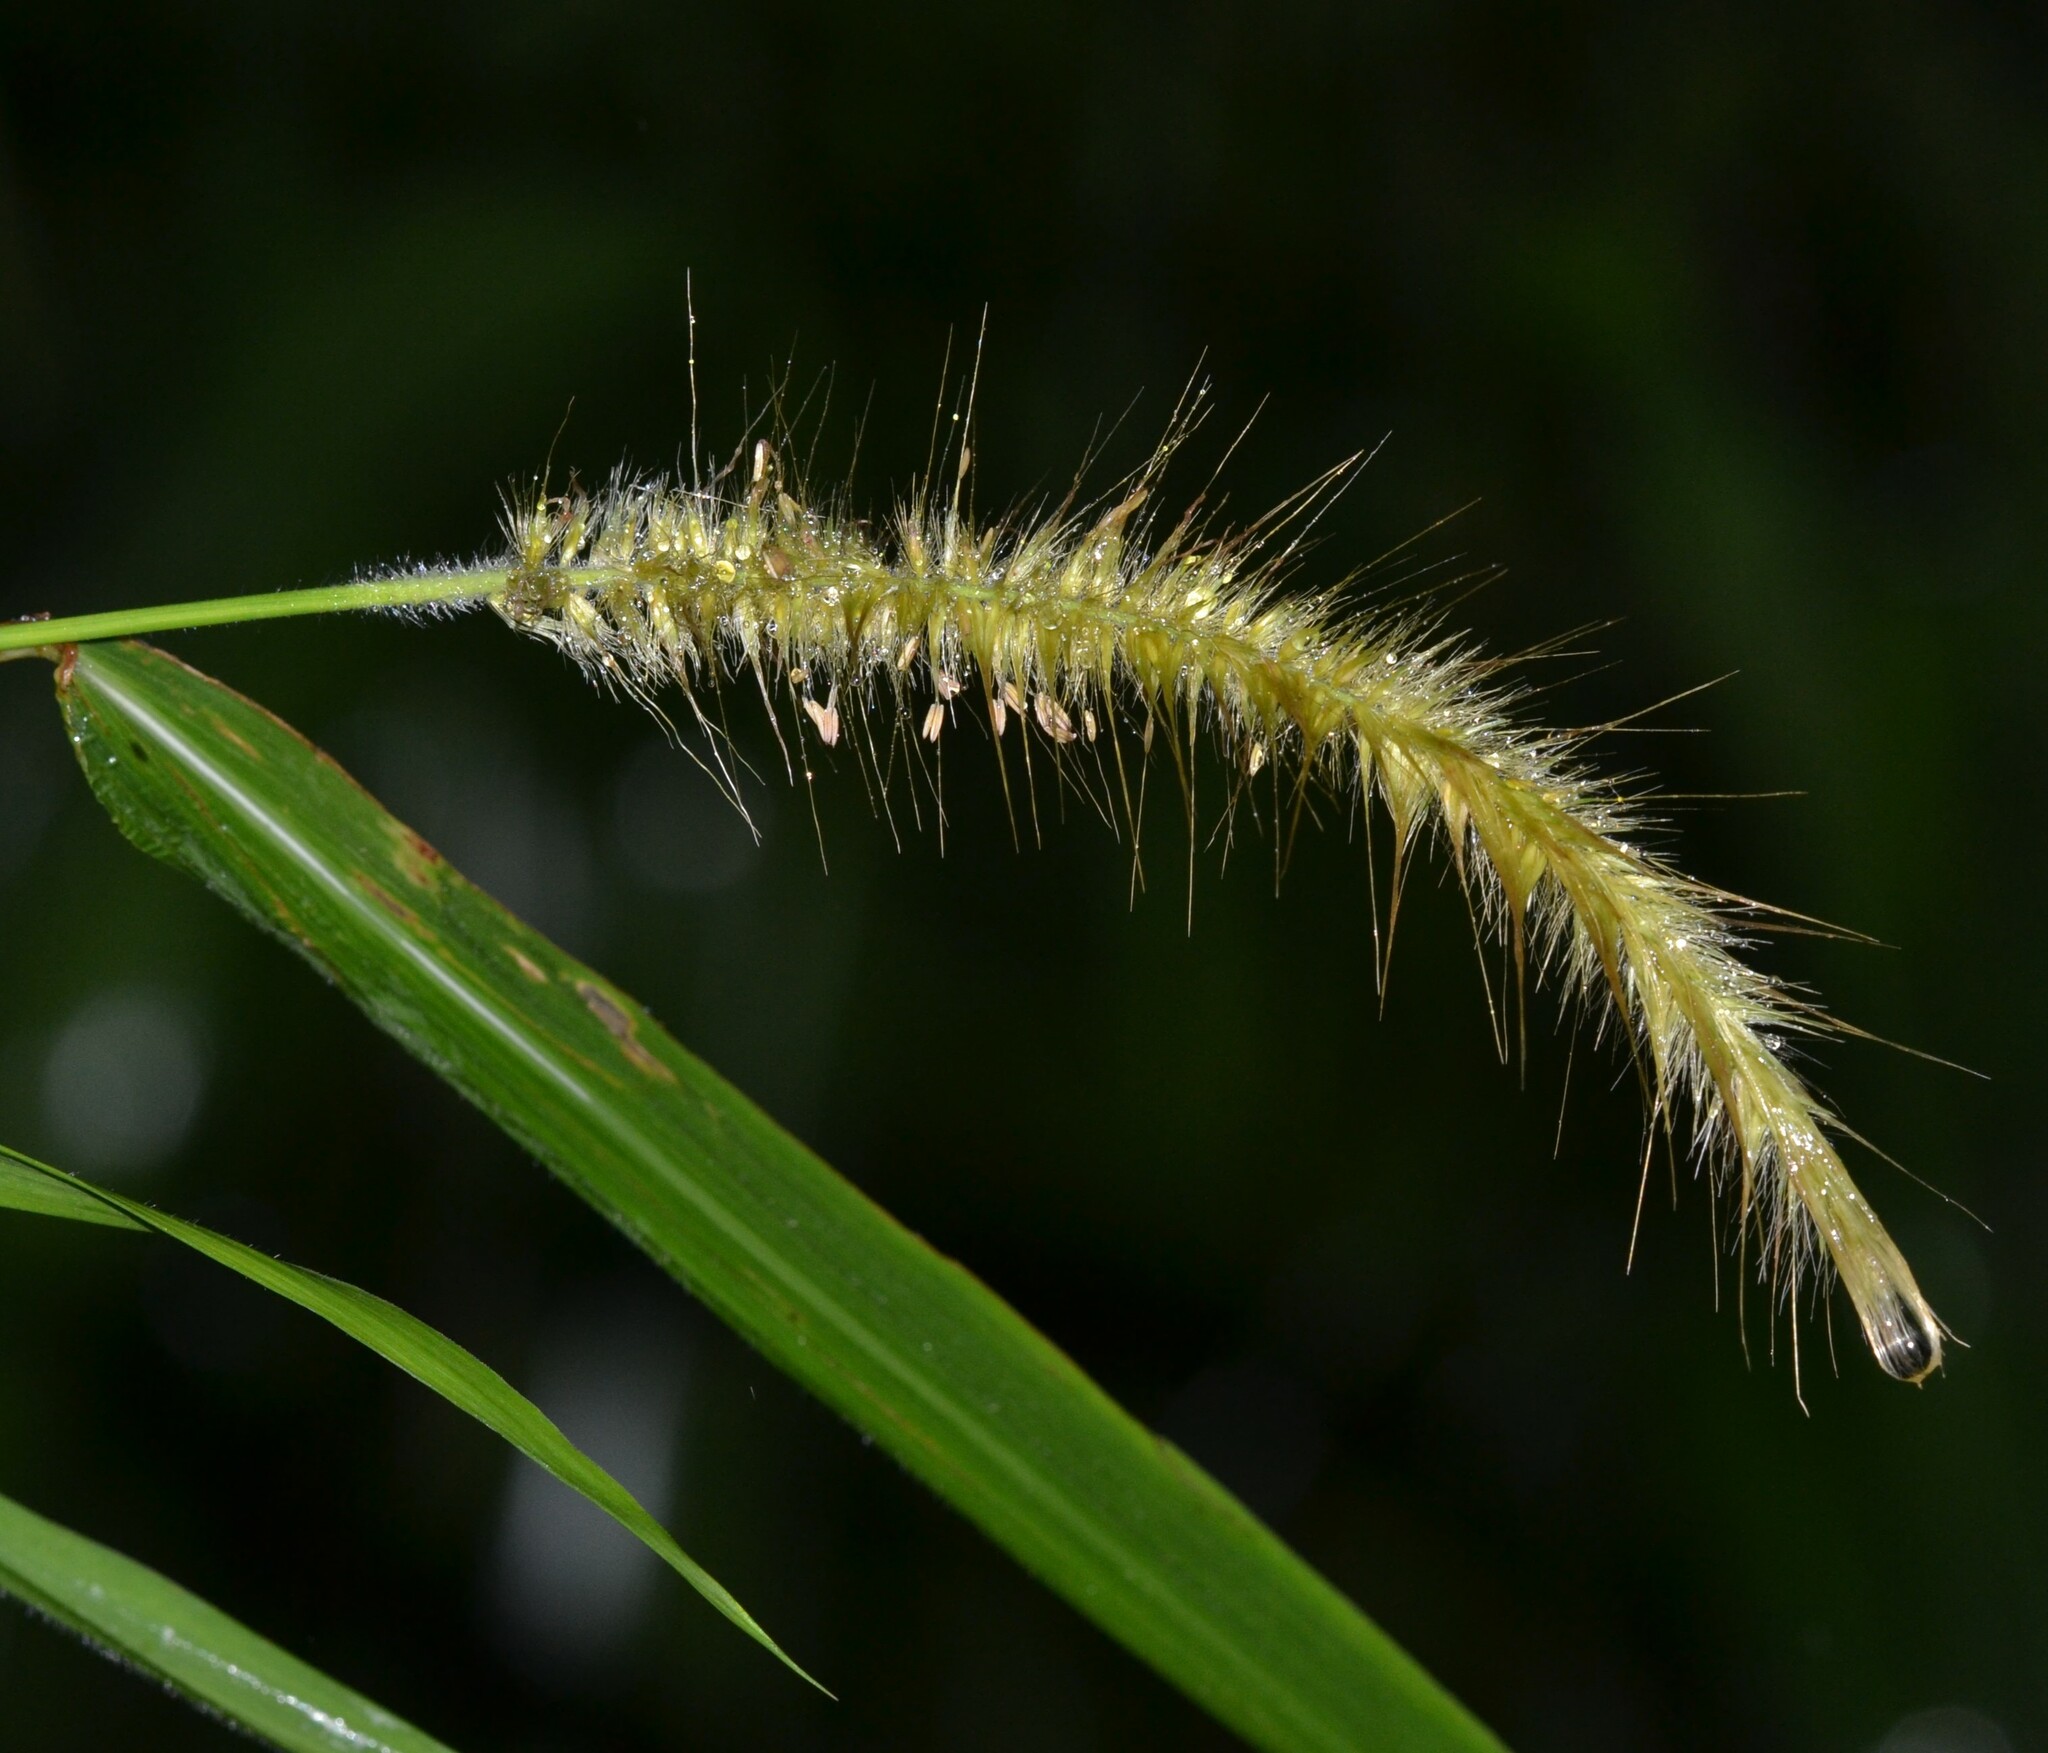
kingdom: Plantae
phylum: Tracheophyta
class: Liliopsida
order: Poales
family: Poaceae
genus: Cenchrus
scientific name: Cenchrus purpureus
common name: Elephant grass
